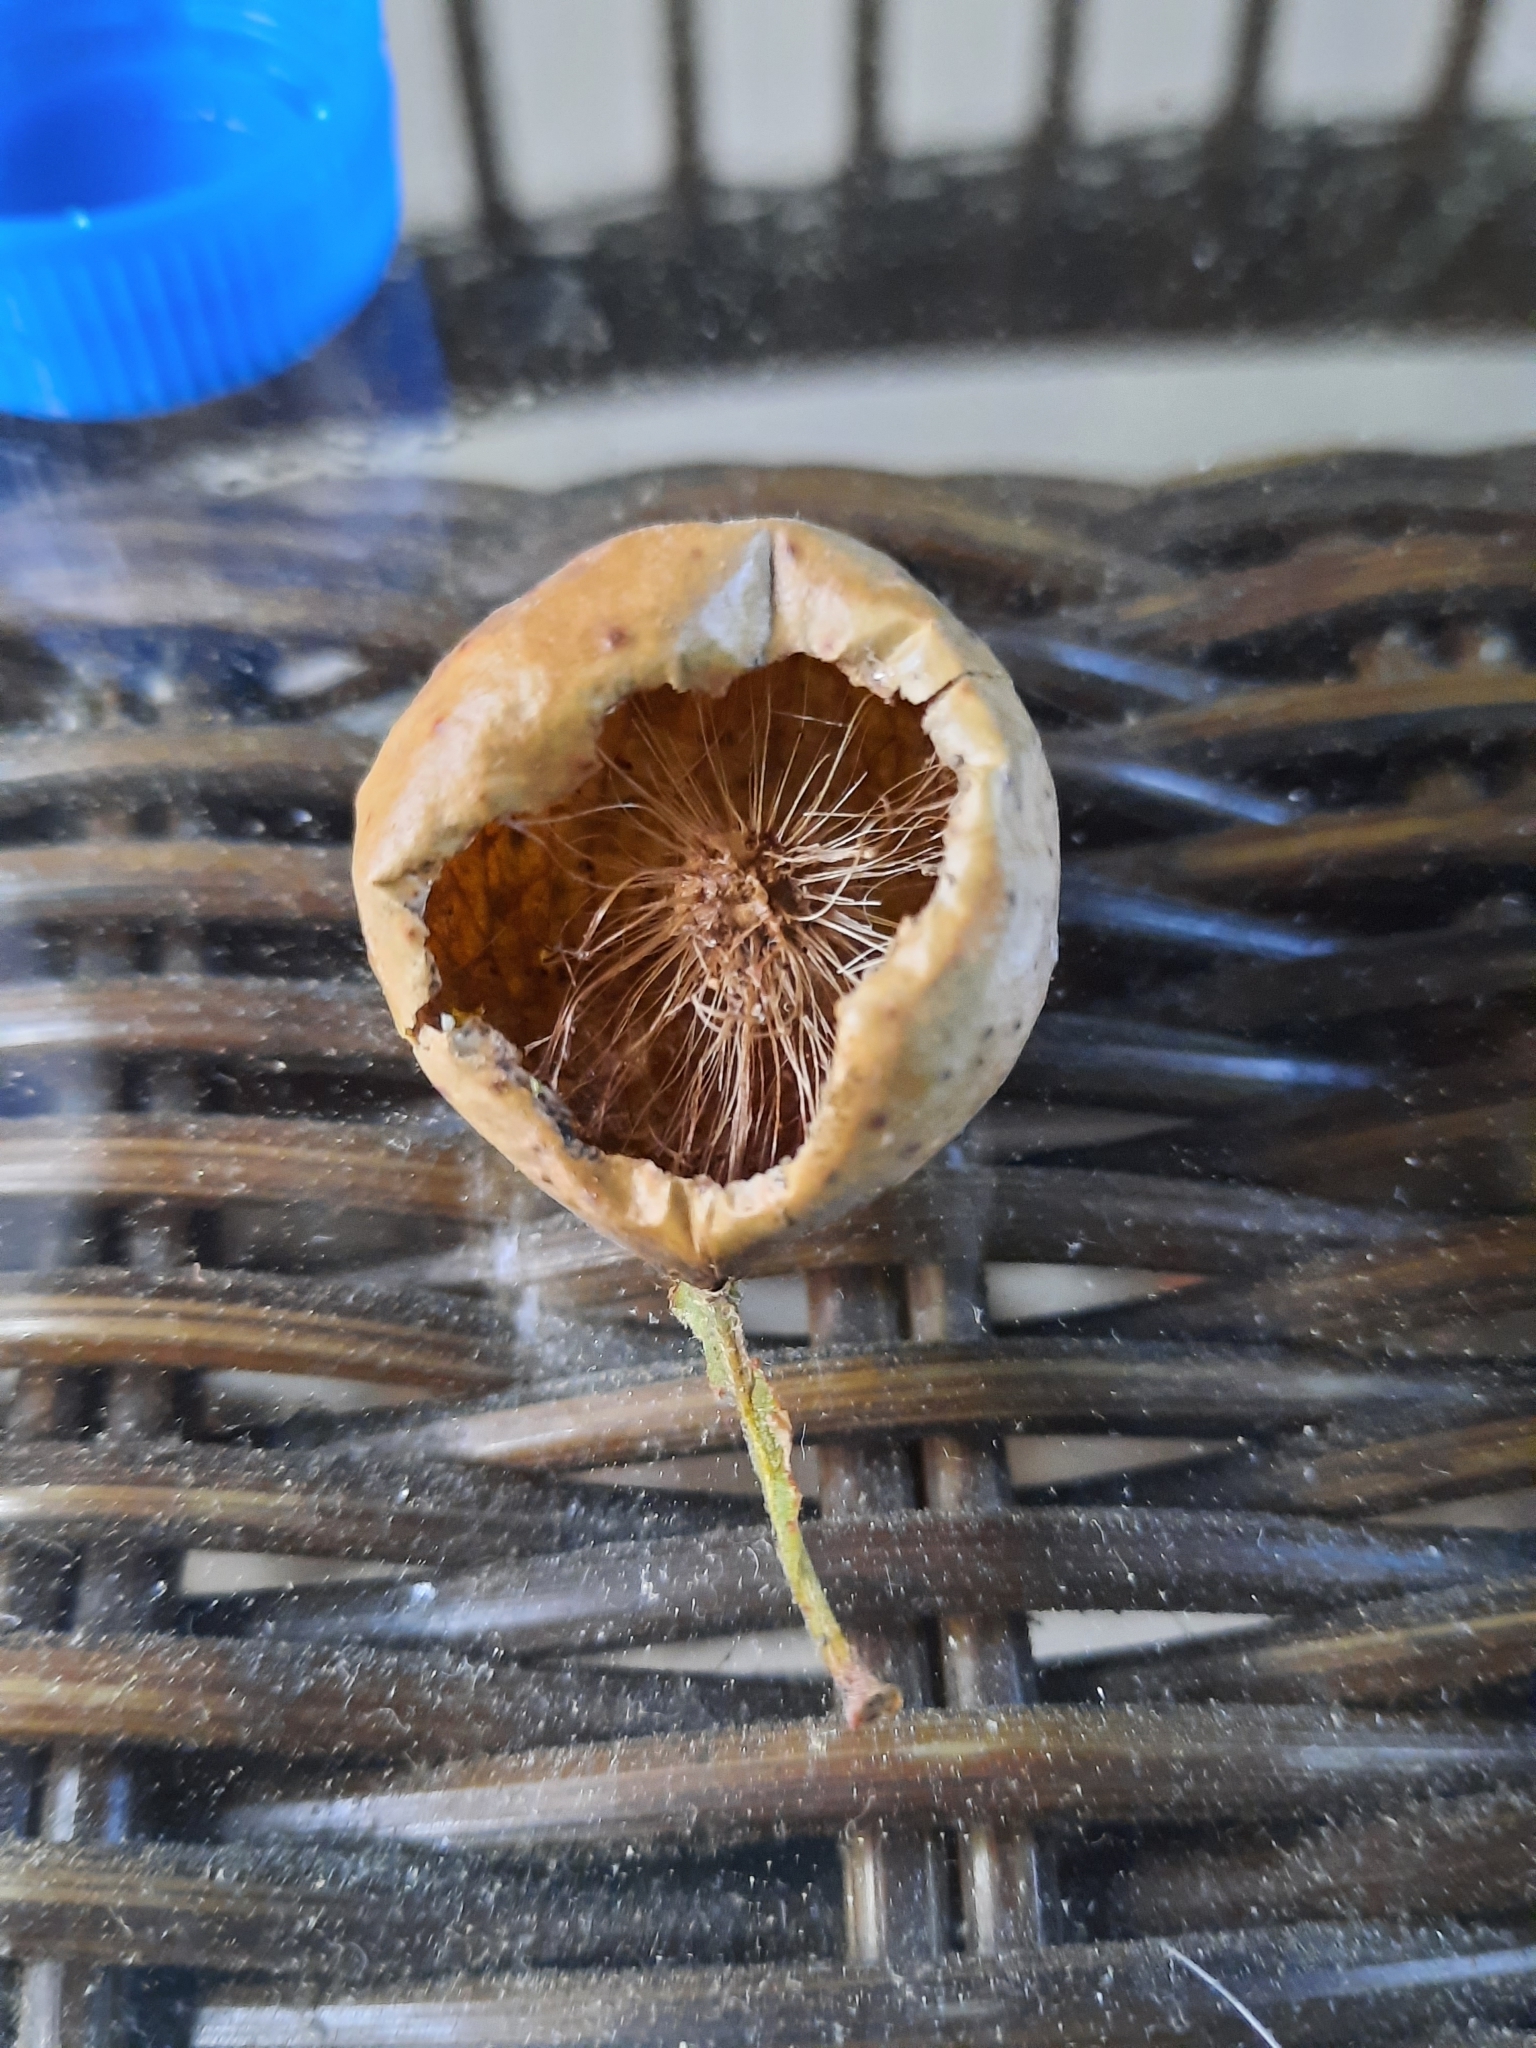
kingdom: Animalia
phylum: Arthropoda
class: Insecta
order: Hymenoptera
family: Cynipidae
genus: Amphibolips
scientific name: Amphibolips
